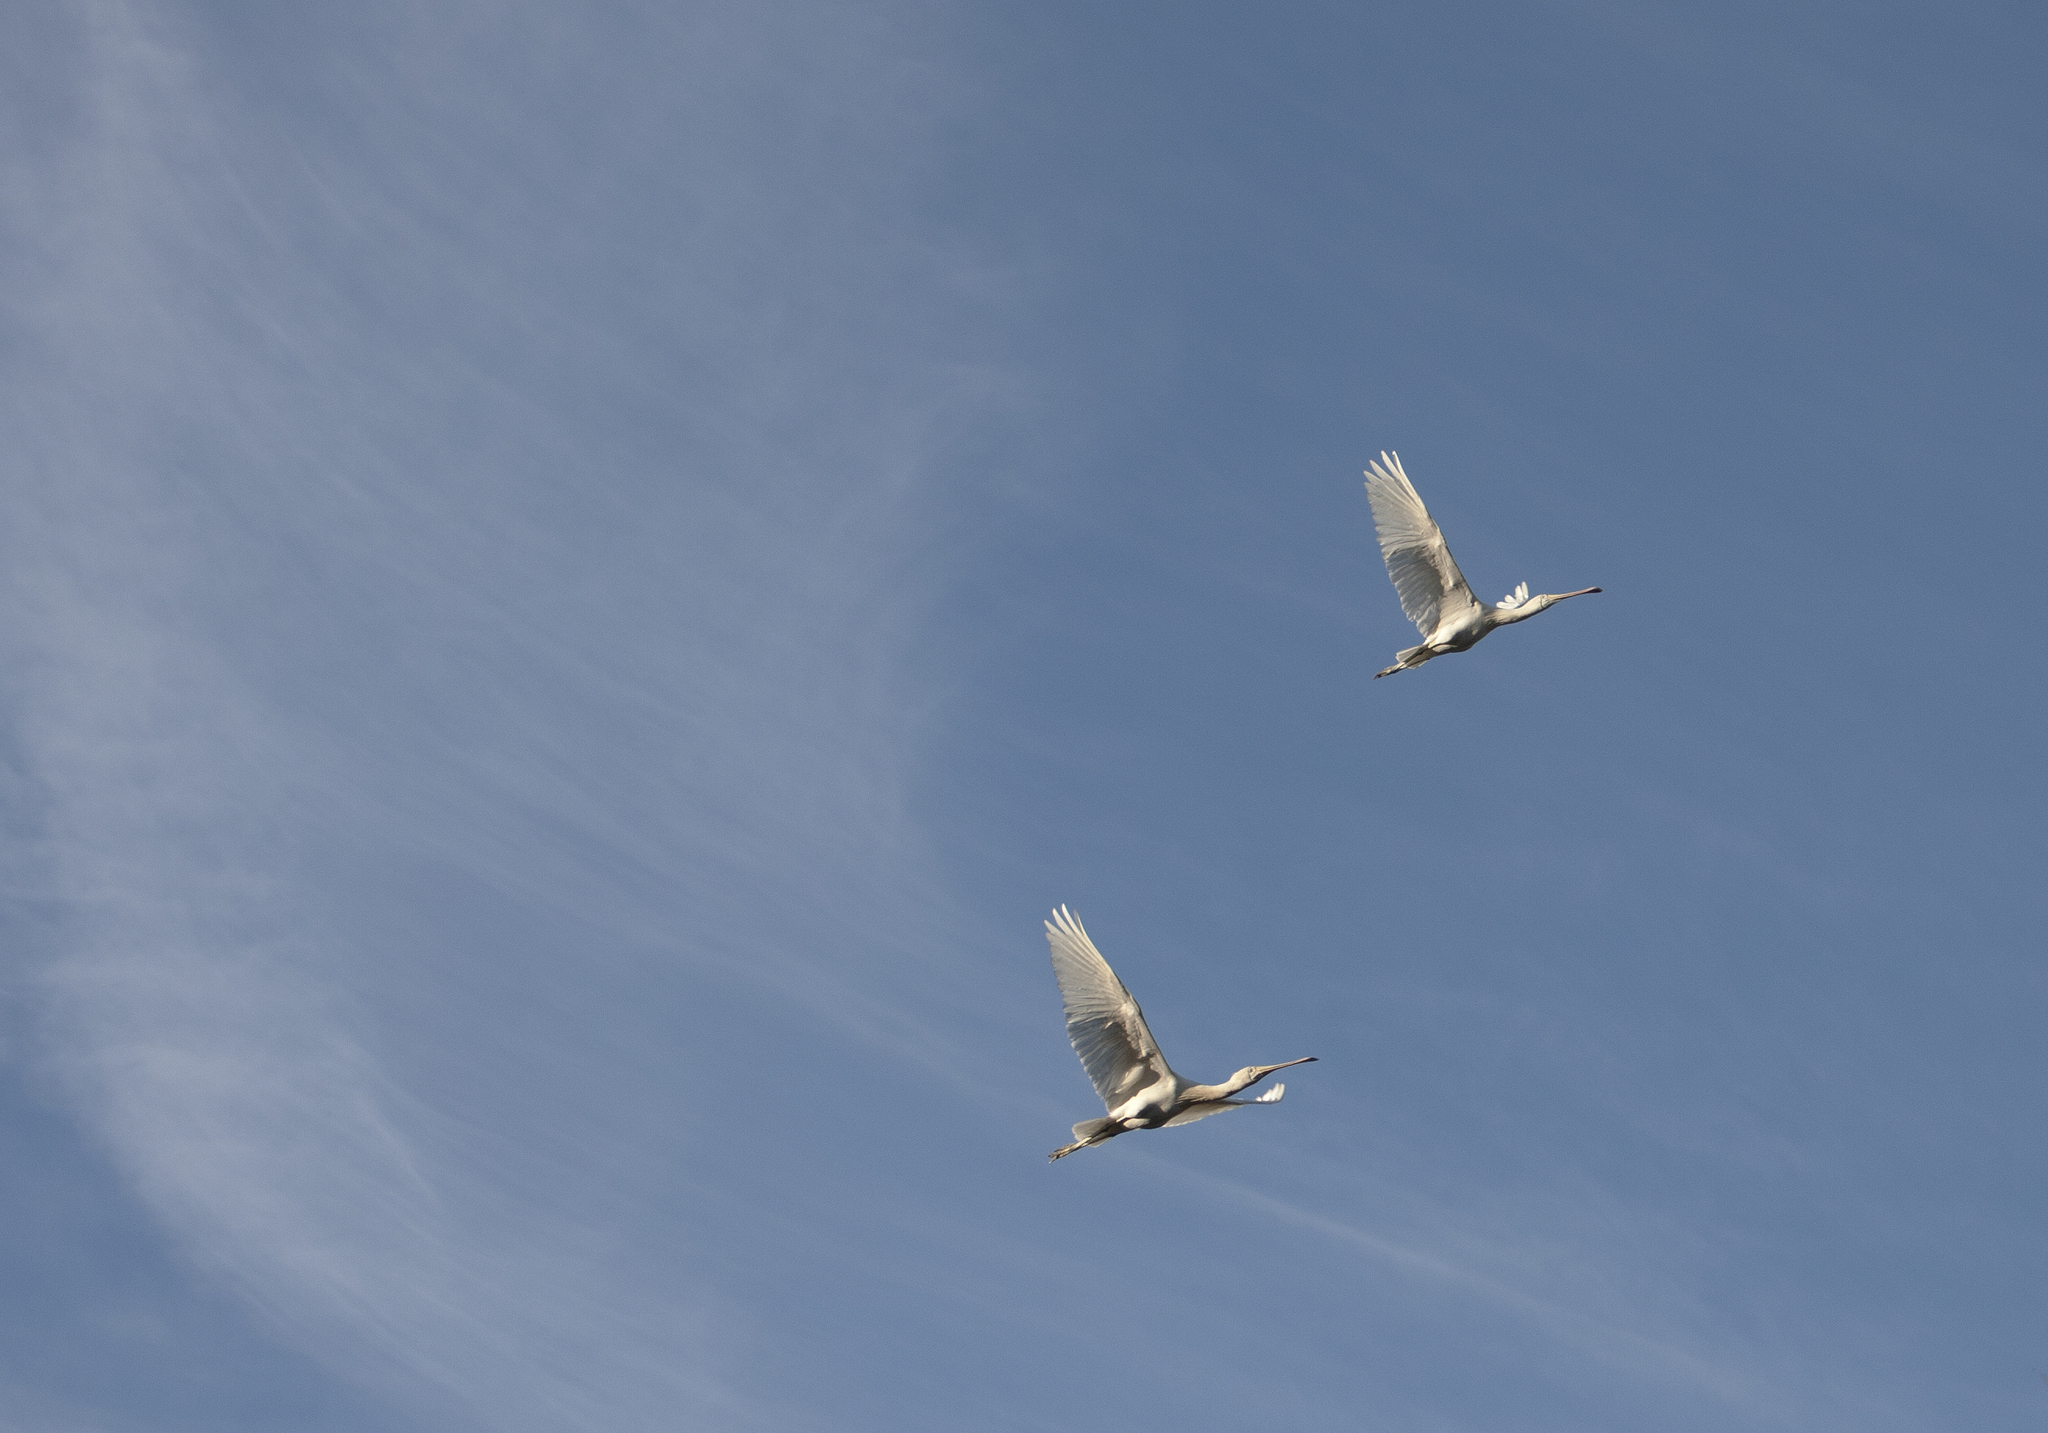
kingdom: Animalia
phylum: Chordata
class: Aves
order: Pelecaniformes
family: Threskiornithidae
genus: Platalea
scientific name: Platalea flavipes
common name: Yellow-billed spoonbill
